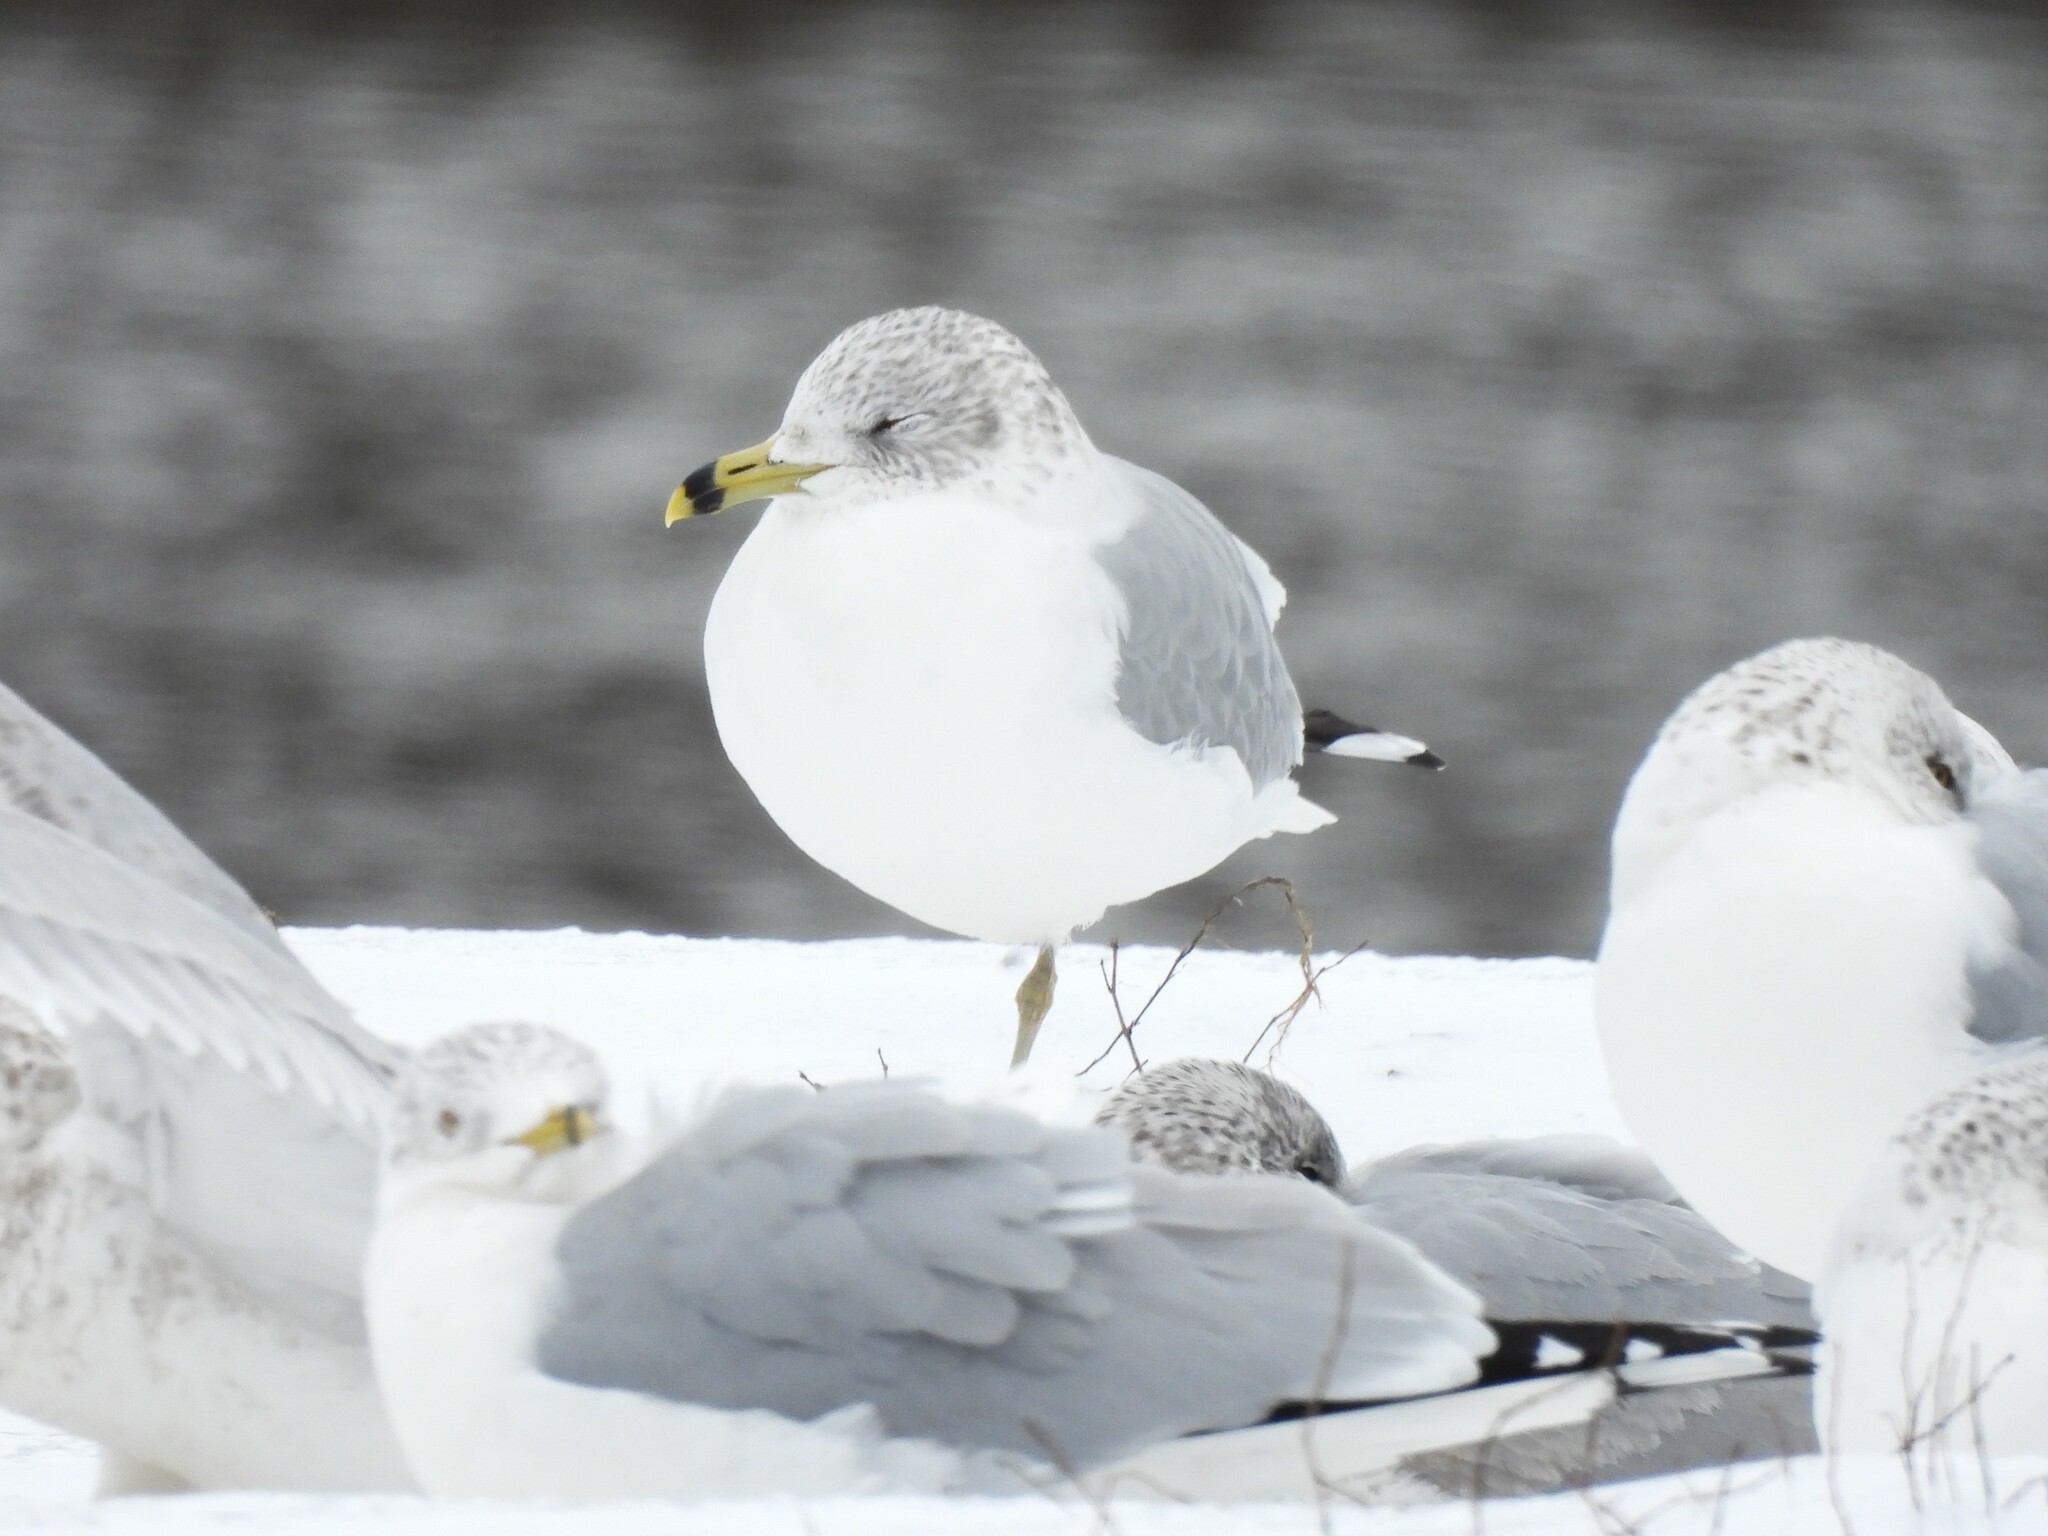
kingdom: Animalia
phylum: Chordata
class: Aves
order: Charadriiformes
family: Laridae
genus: Larus
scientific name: Larus delawarensis
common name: Ring-billed gull
